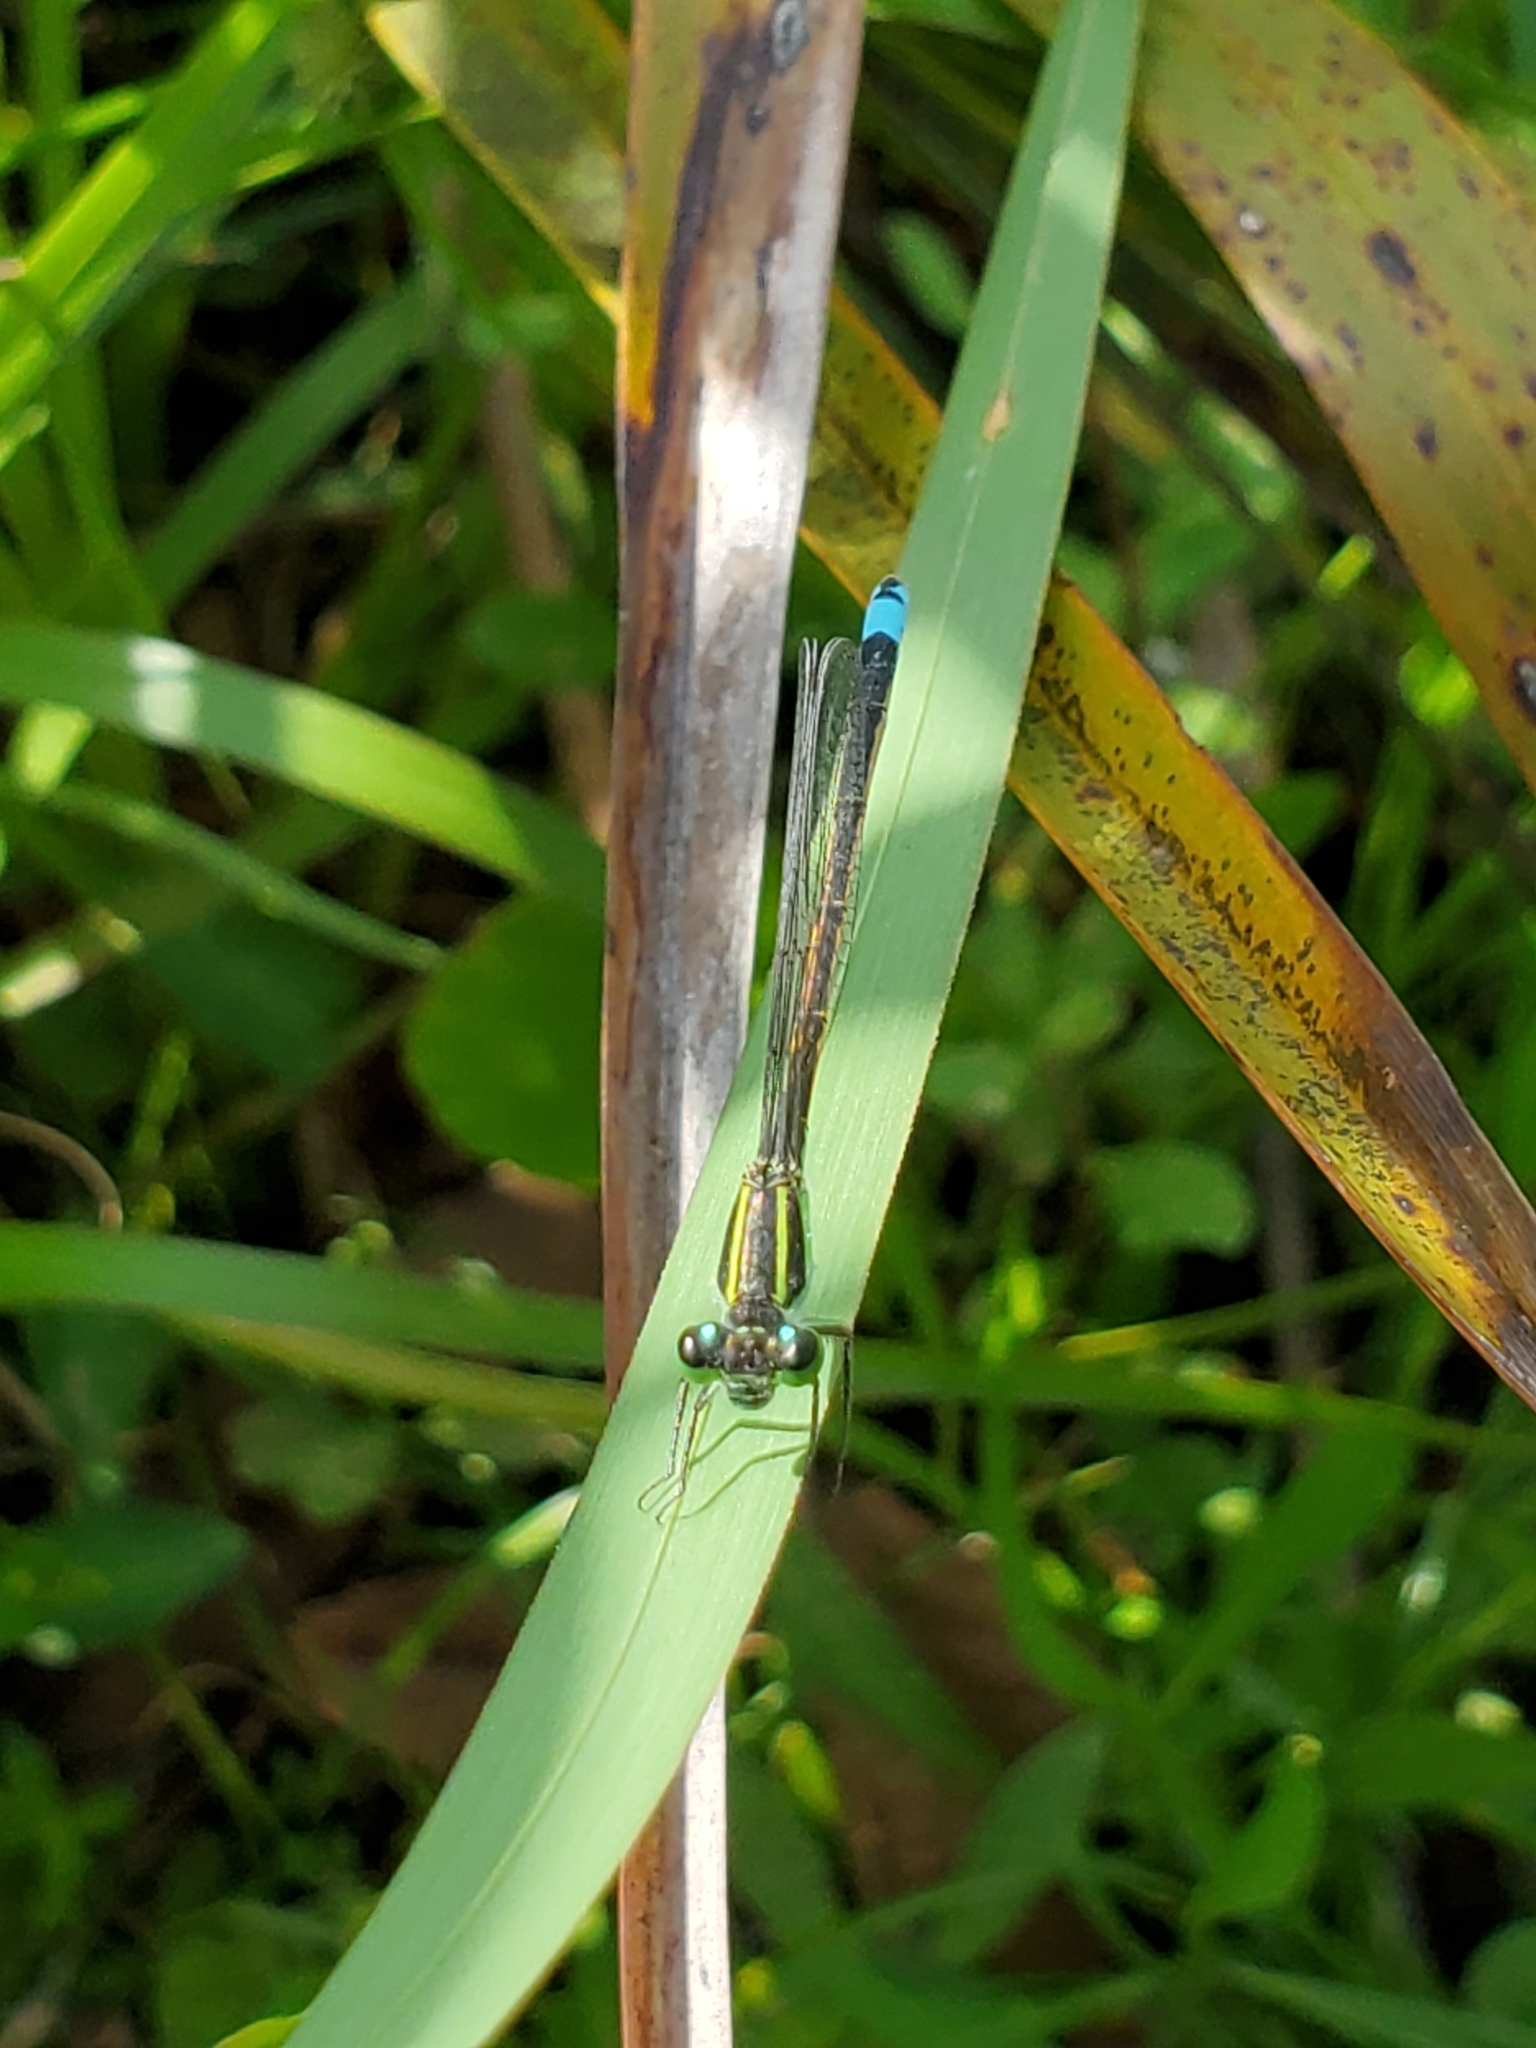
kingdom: Animalia
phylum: Arthropoda
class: Insecta
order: Odonata
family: Coenagrionidae
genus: Ischnura
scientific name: Ischnura ramburii
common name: Rambur's forktail
